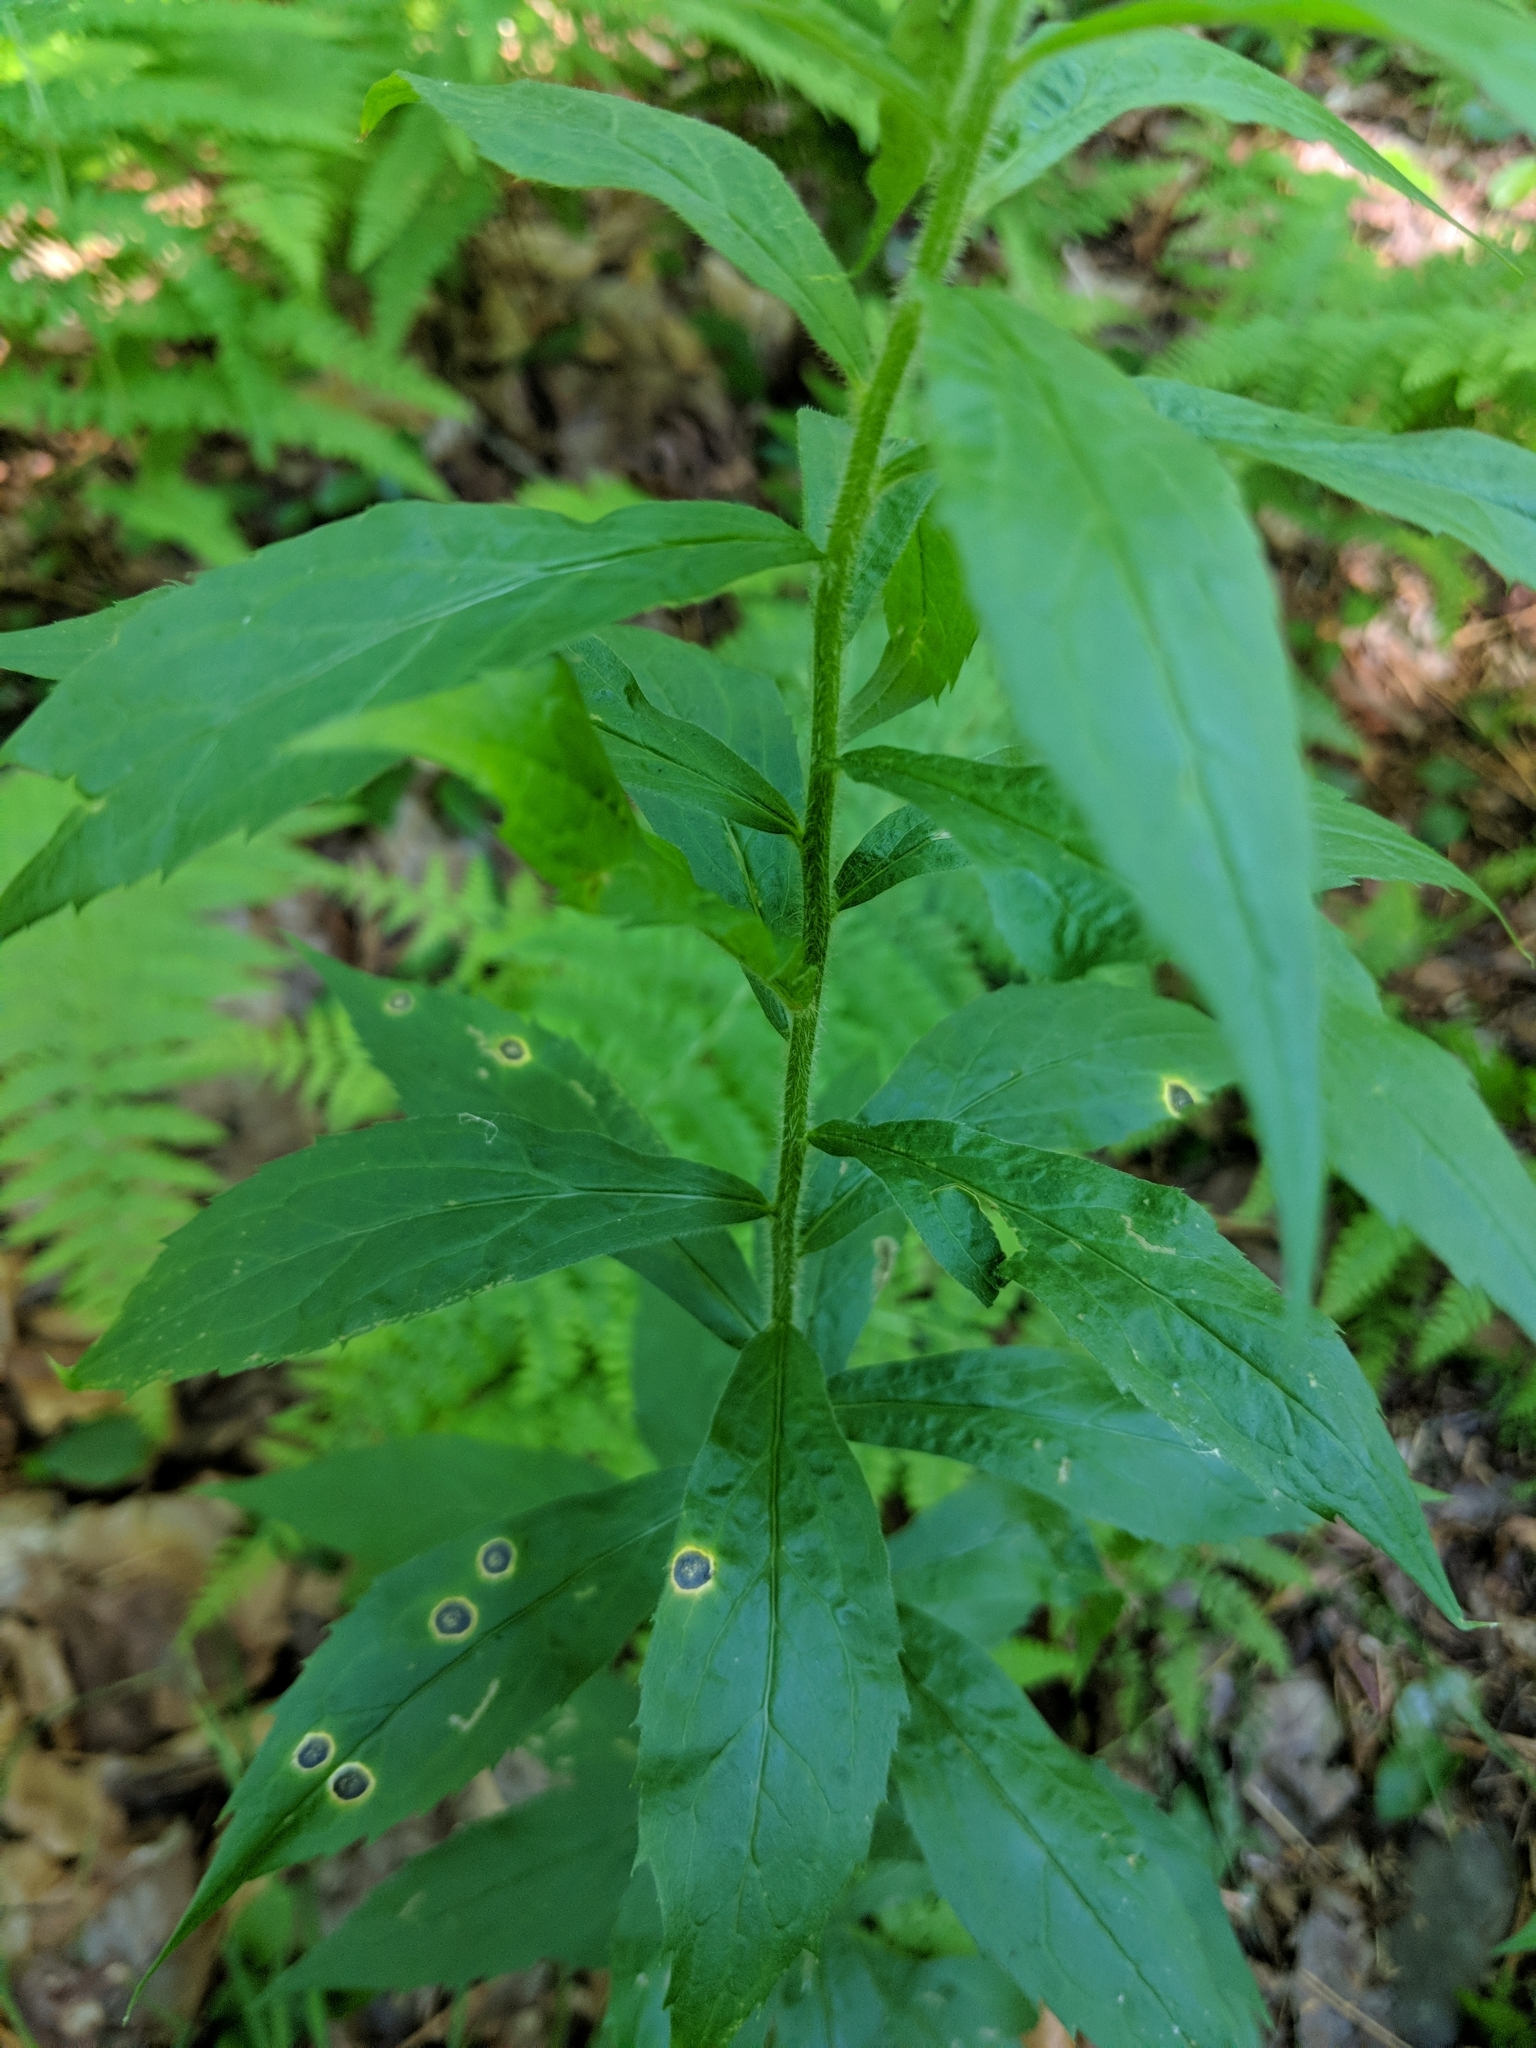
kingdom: Plantae
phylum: Tracheophyta
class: Magnoliopsida
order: Asterales
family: Asteraceae
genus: Solidago
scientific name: Solidago rugosa
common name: Rough-stemmed goldenrod
